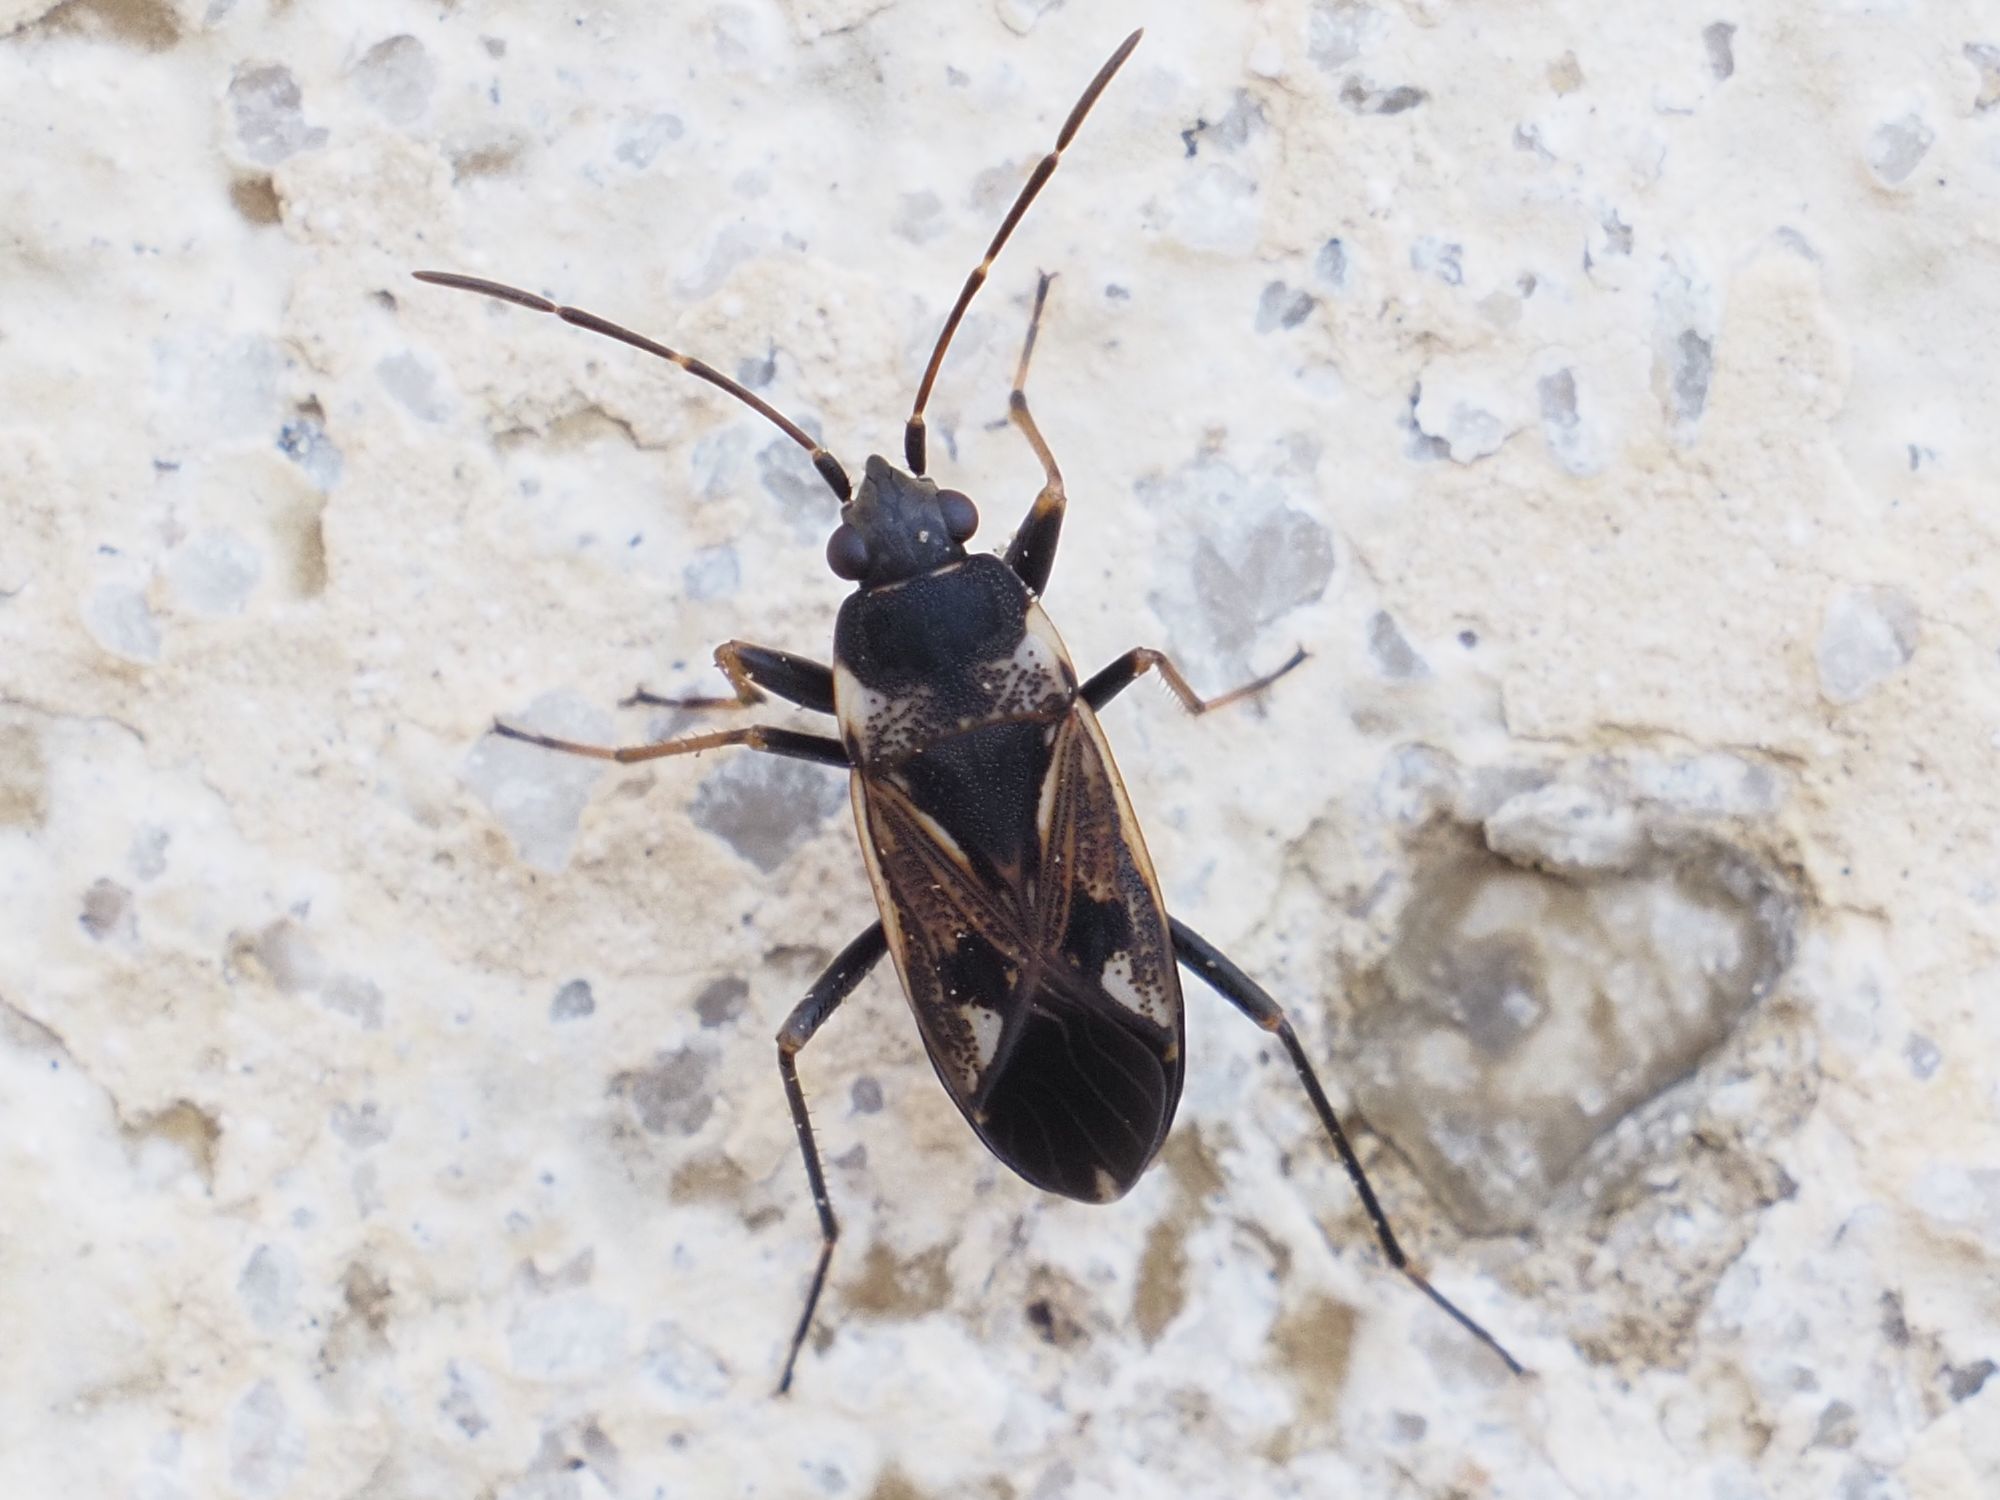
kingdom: Animalia
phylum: Arthropoda
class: Insecta
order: Hemiptera
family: Rhyparochromidae
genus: Rhyparochromus
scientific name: Rhyparochromus vulgaris
